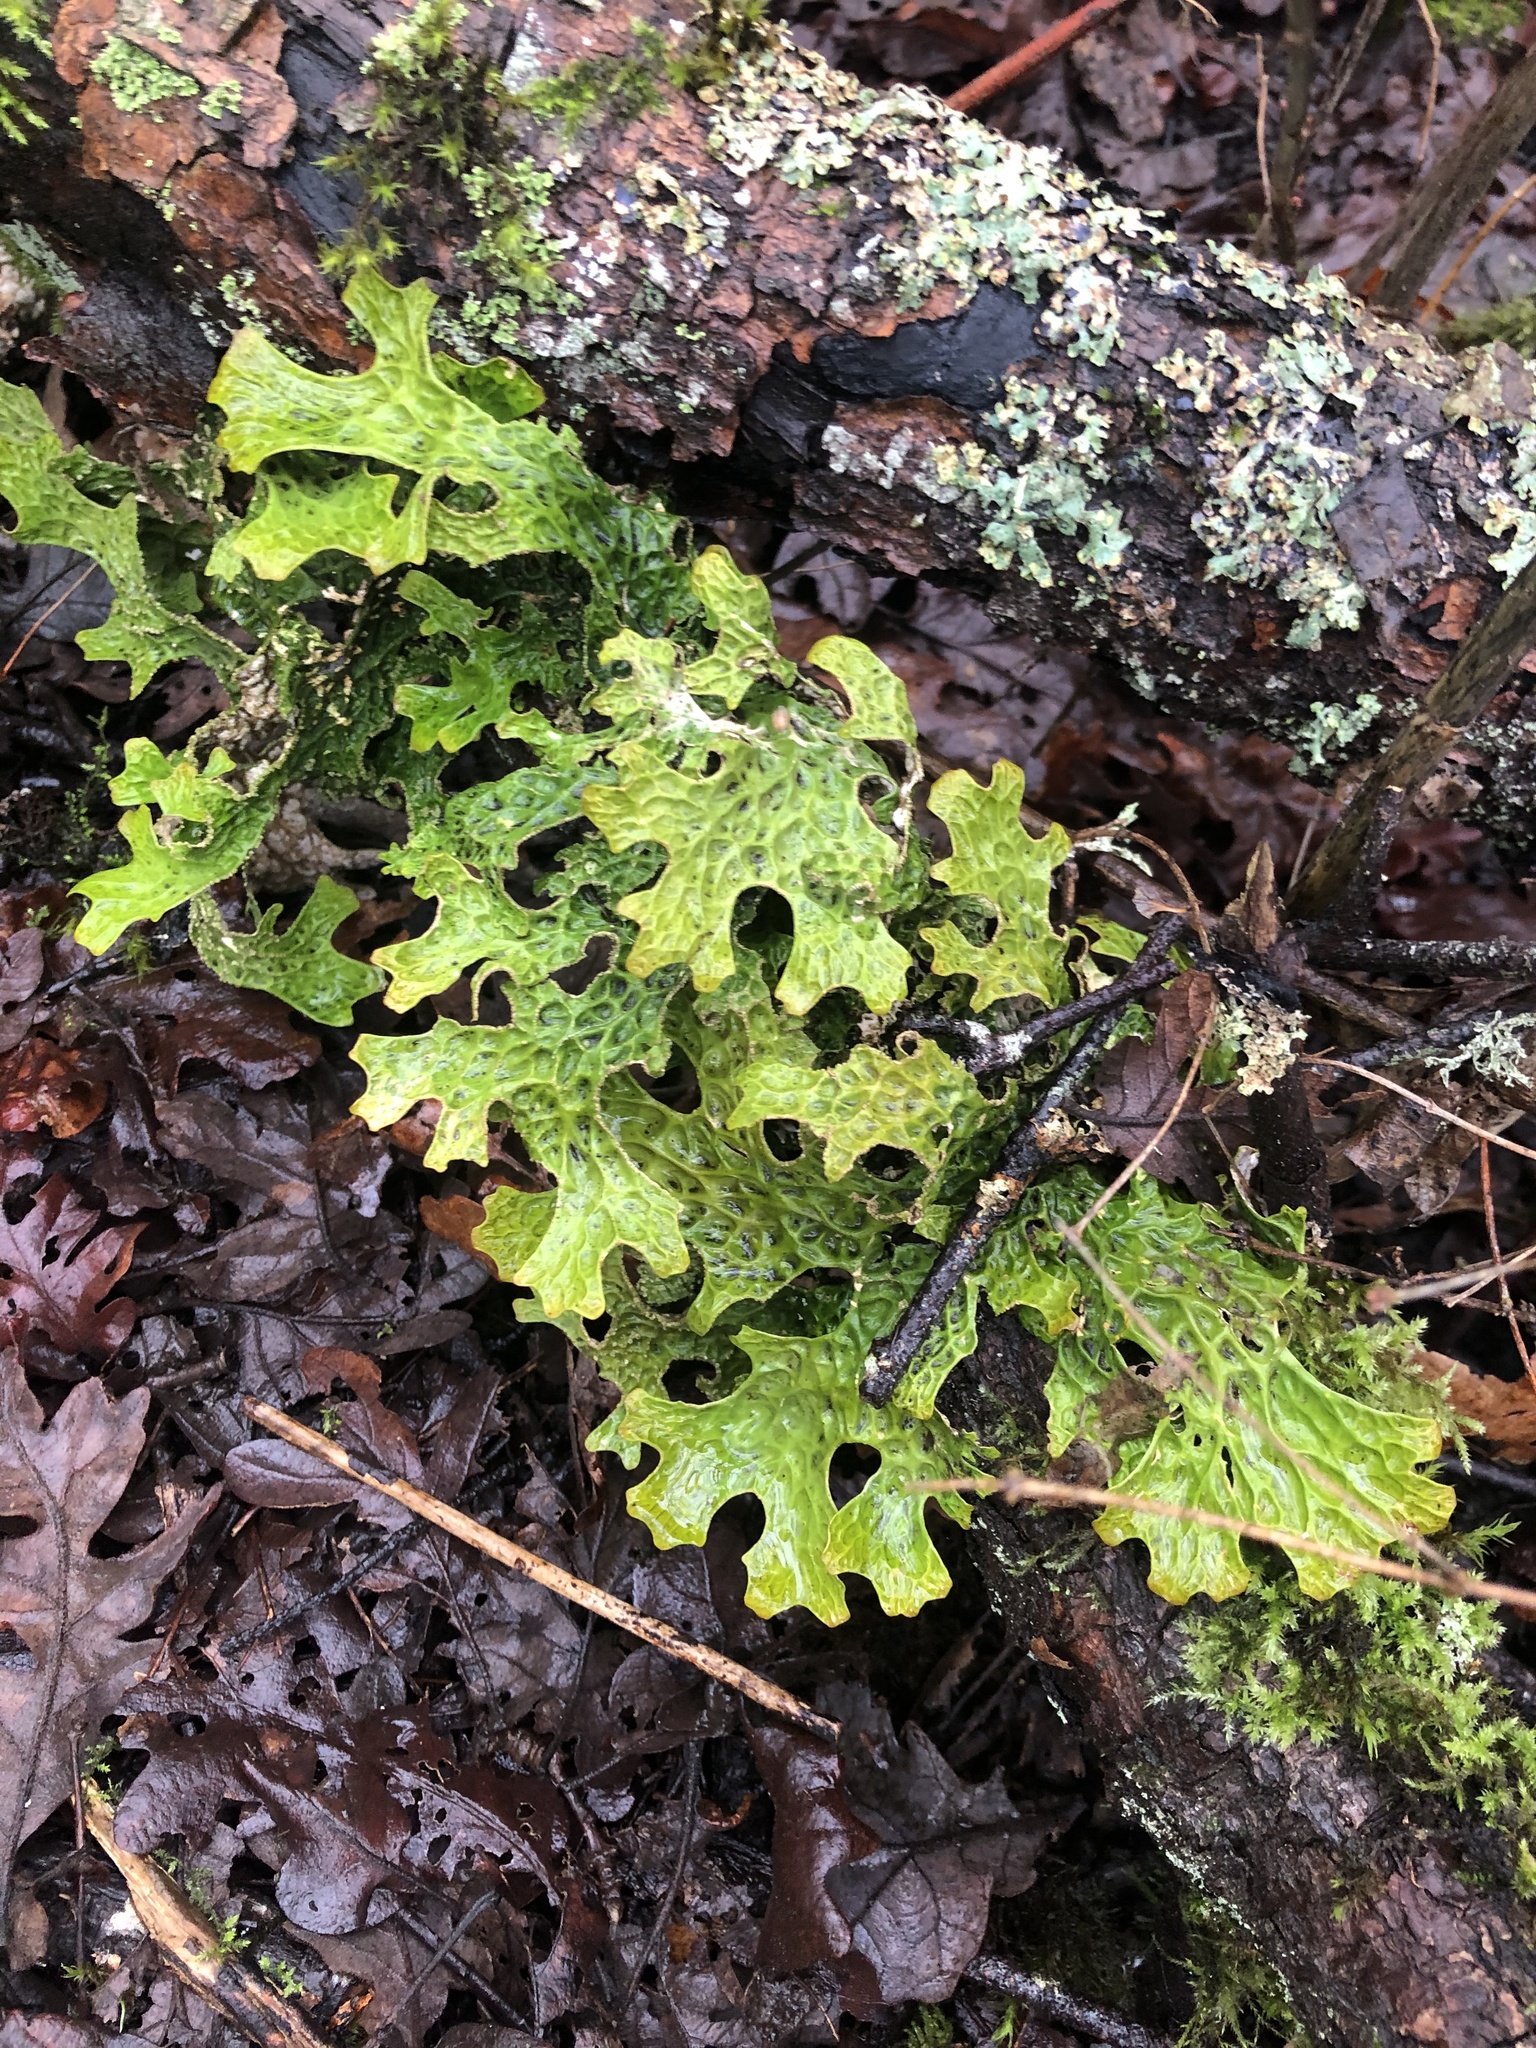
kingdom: Fungi
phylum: Ascomycota
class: Lecanoromycetes
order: Peltigerales
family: Lobariaceae
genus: Lobaria
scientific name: Lobaria pulmonaria
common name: Lungwort
